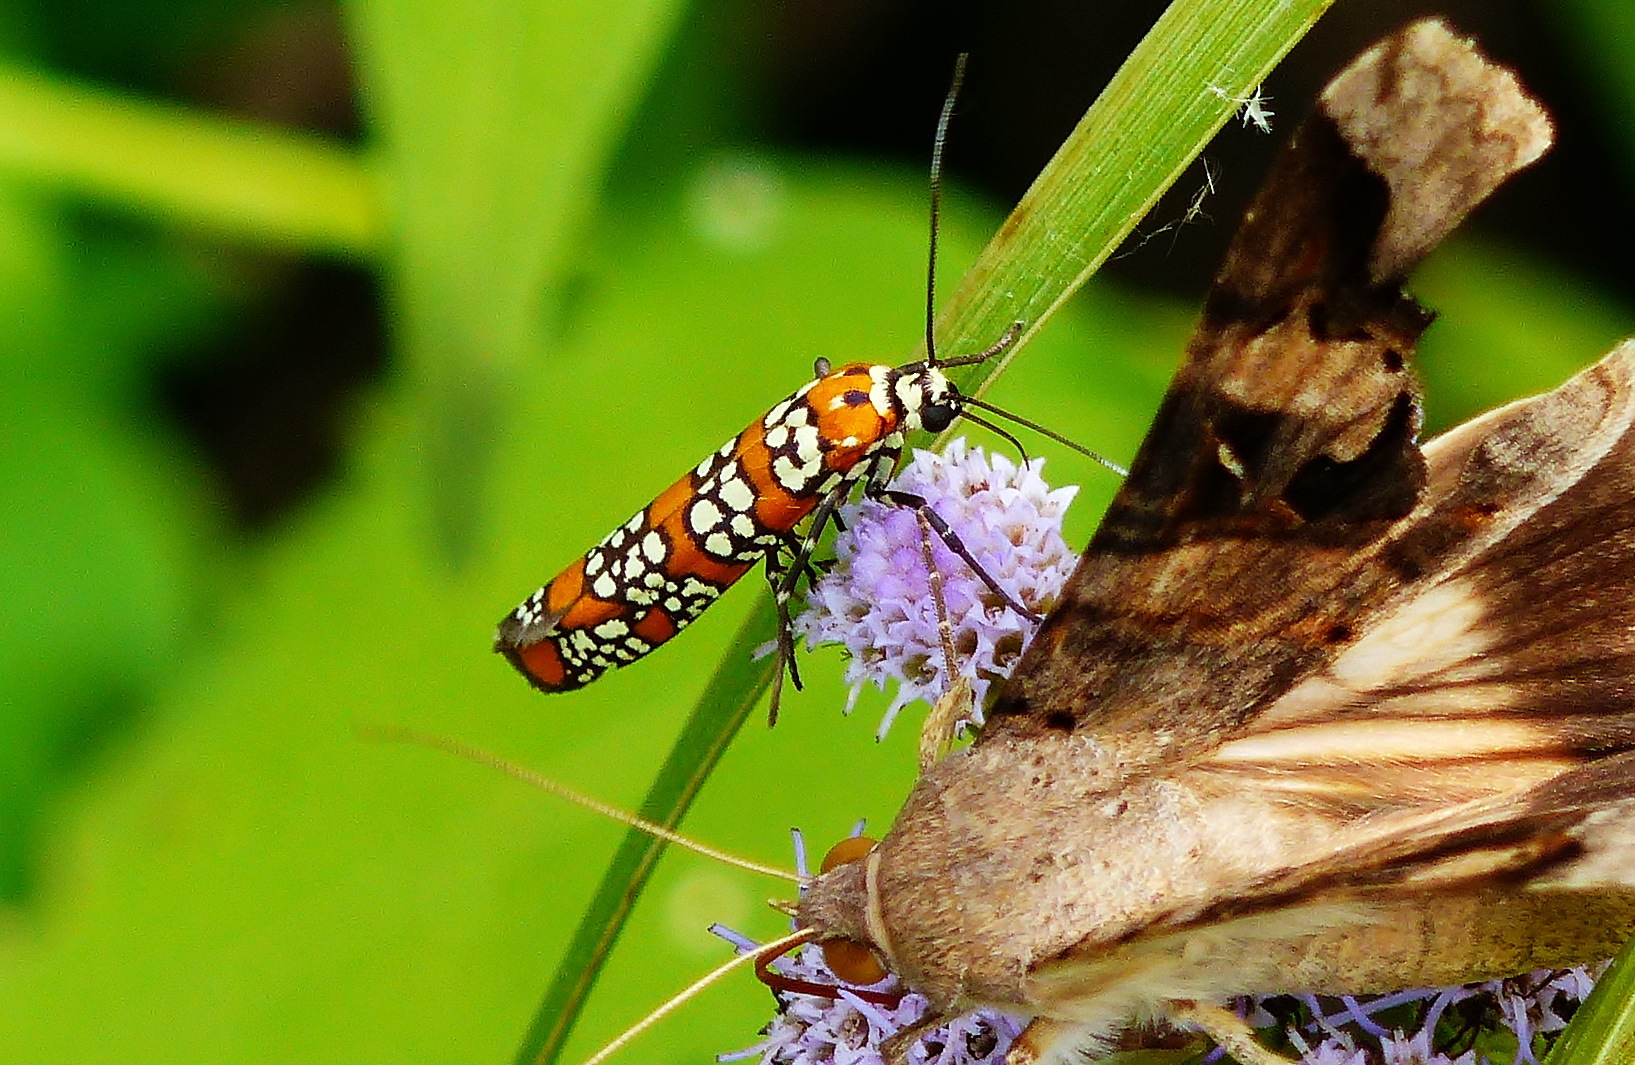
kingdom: Animalia
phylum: Arthropoda
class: Insecta
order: Lepidoptera
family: Attevidae
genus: Atteva
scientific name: Atteva punctella
